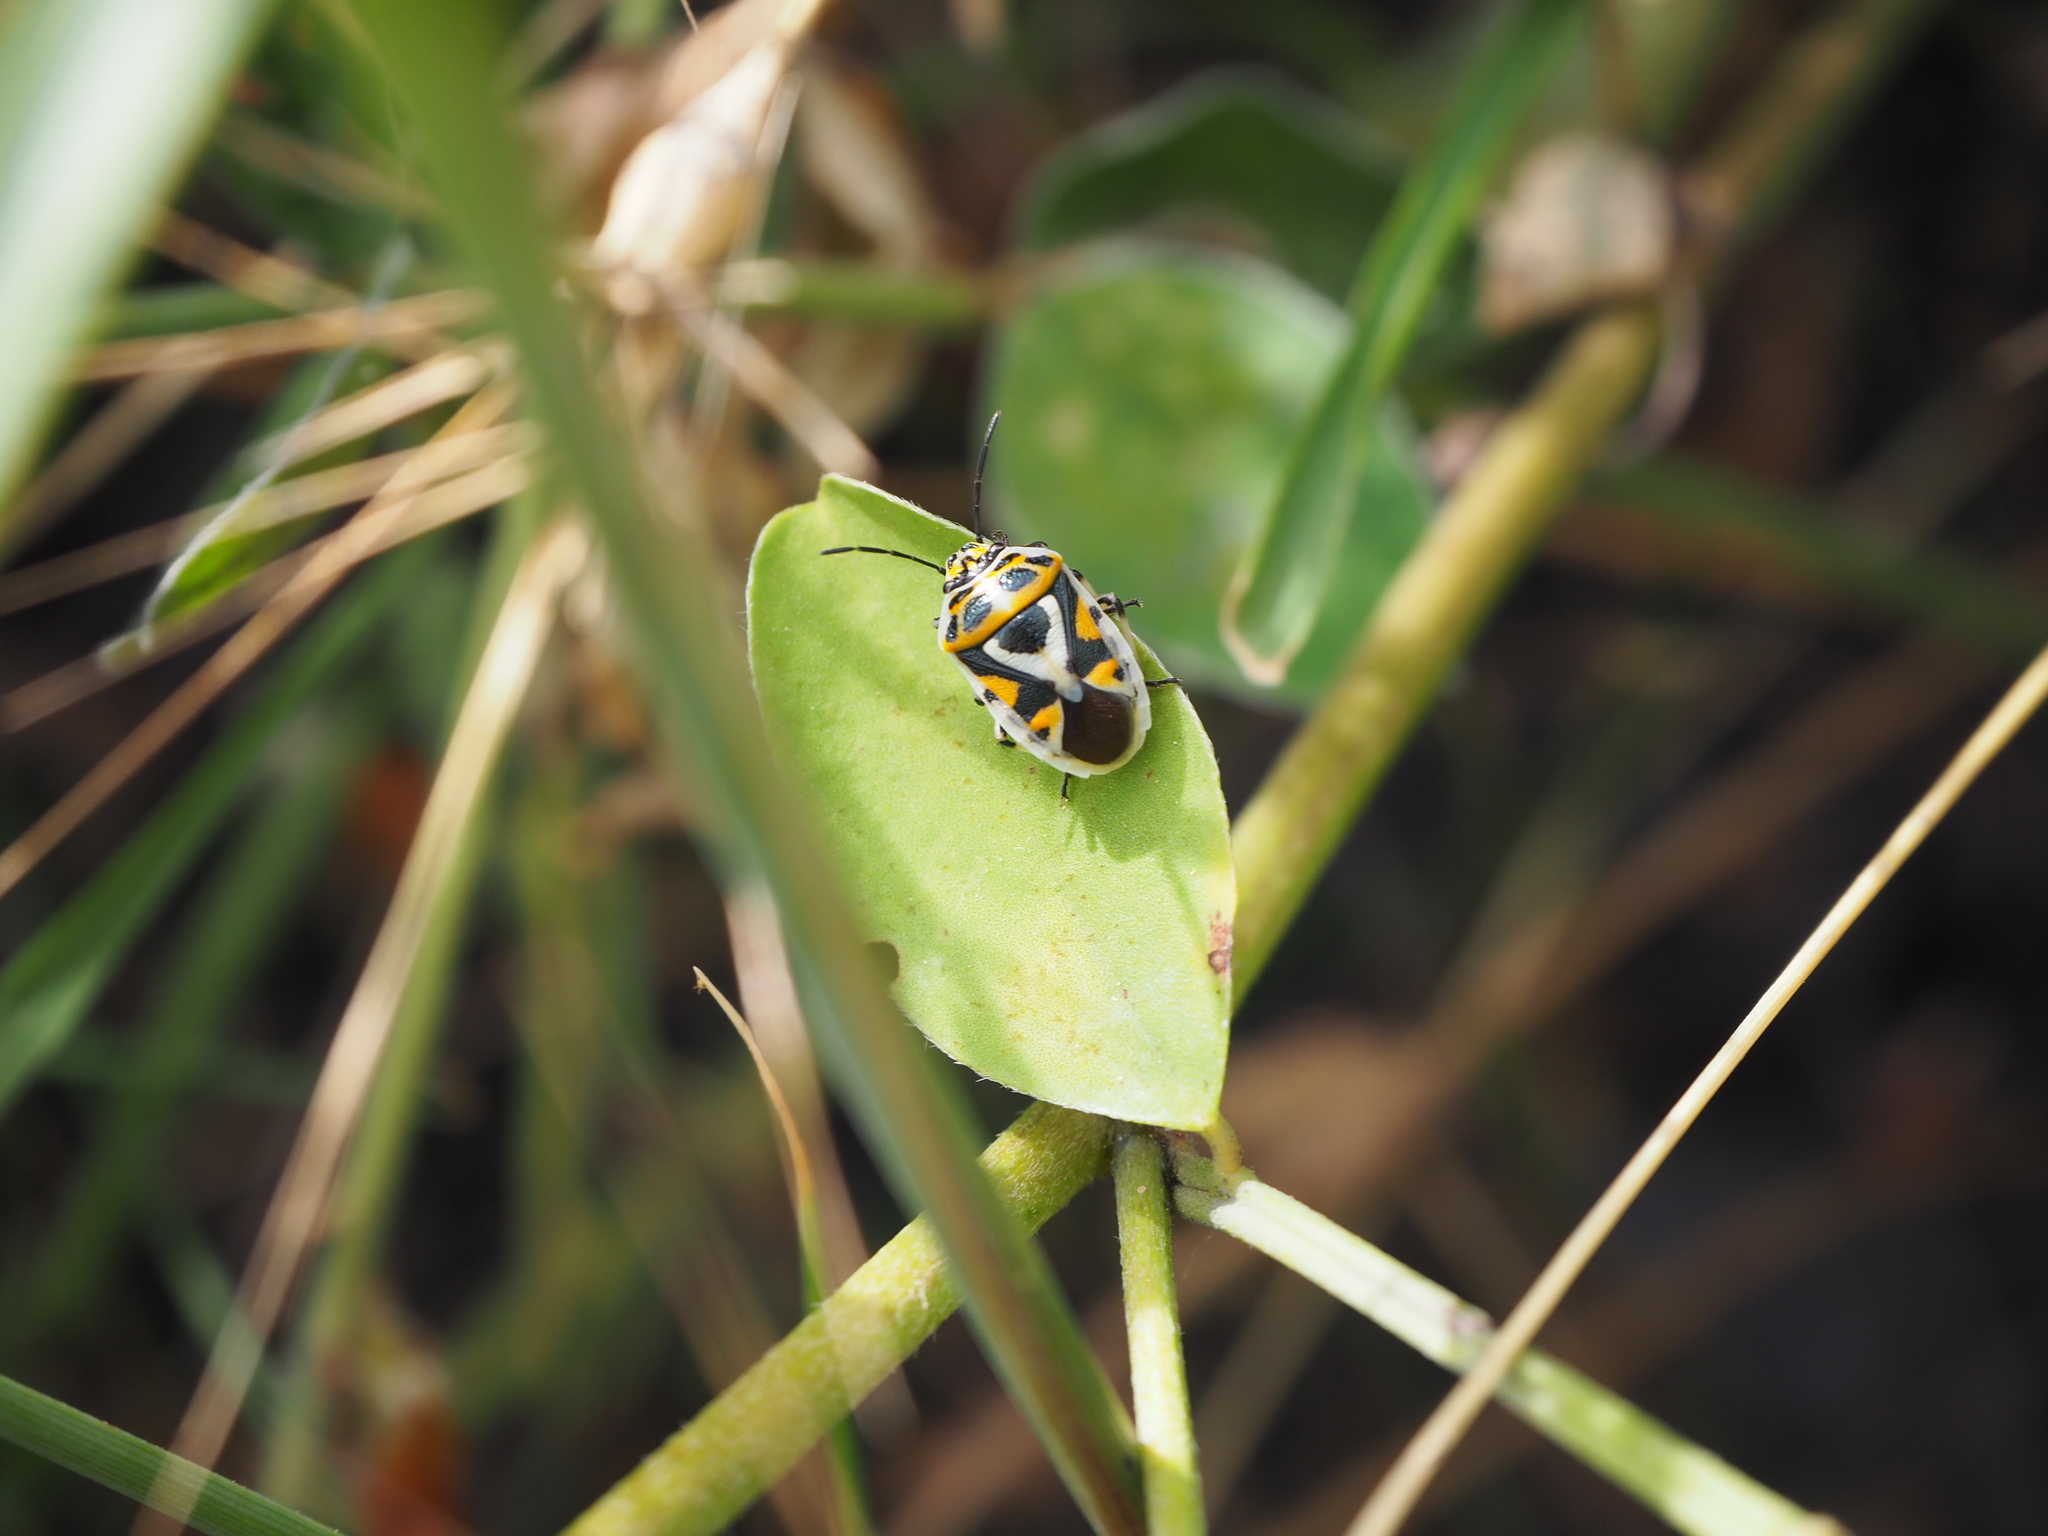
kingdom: Animalia
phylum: Arthropoda
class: Insecta
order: Hemiptera
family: Pentatomidae
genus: Eurydema
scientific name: Eurydema ornata
